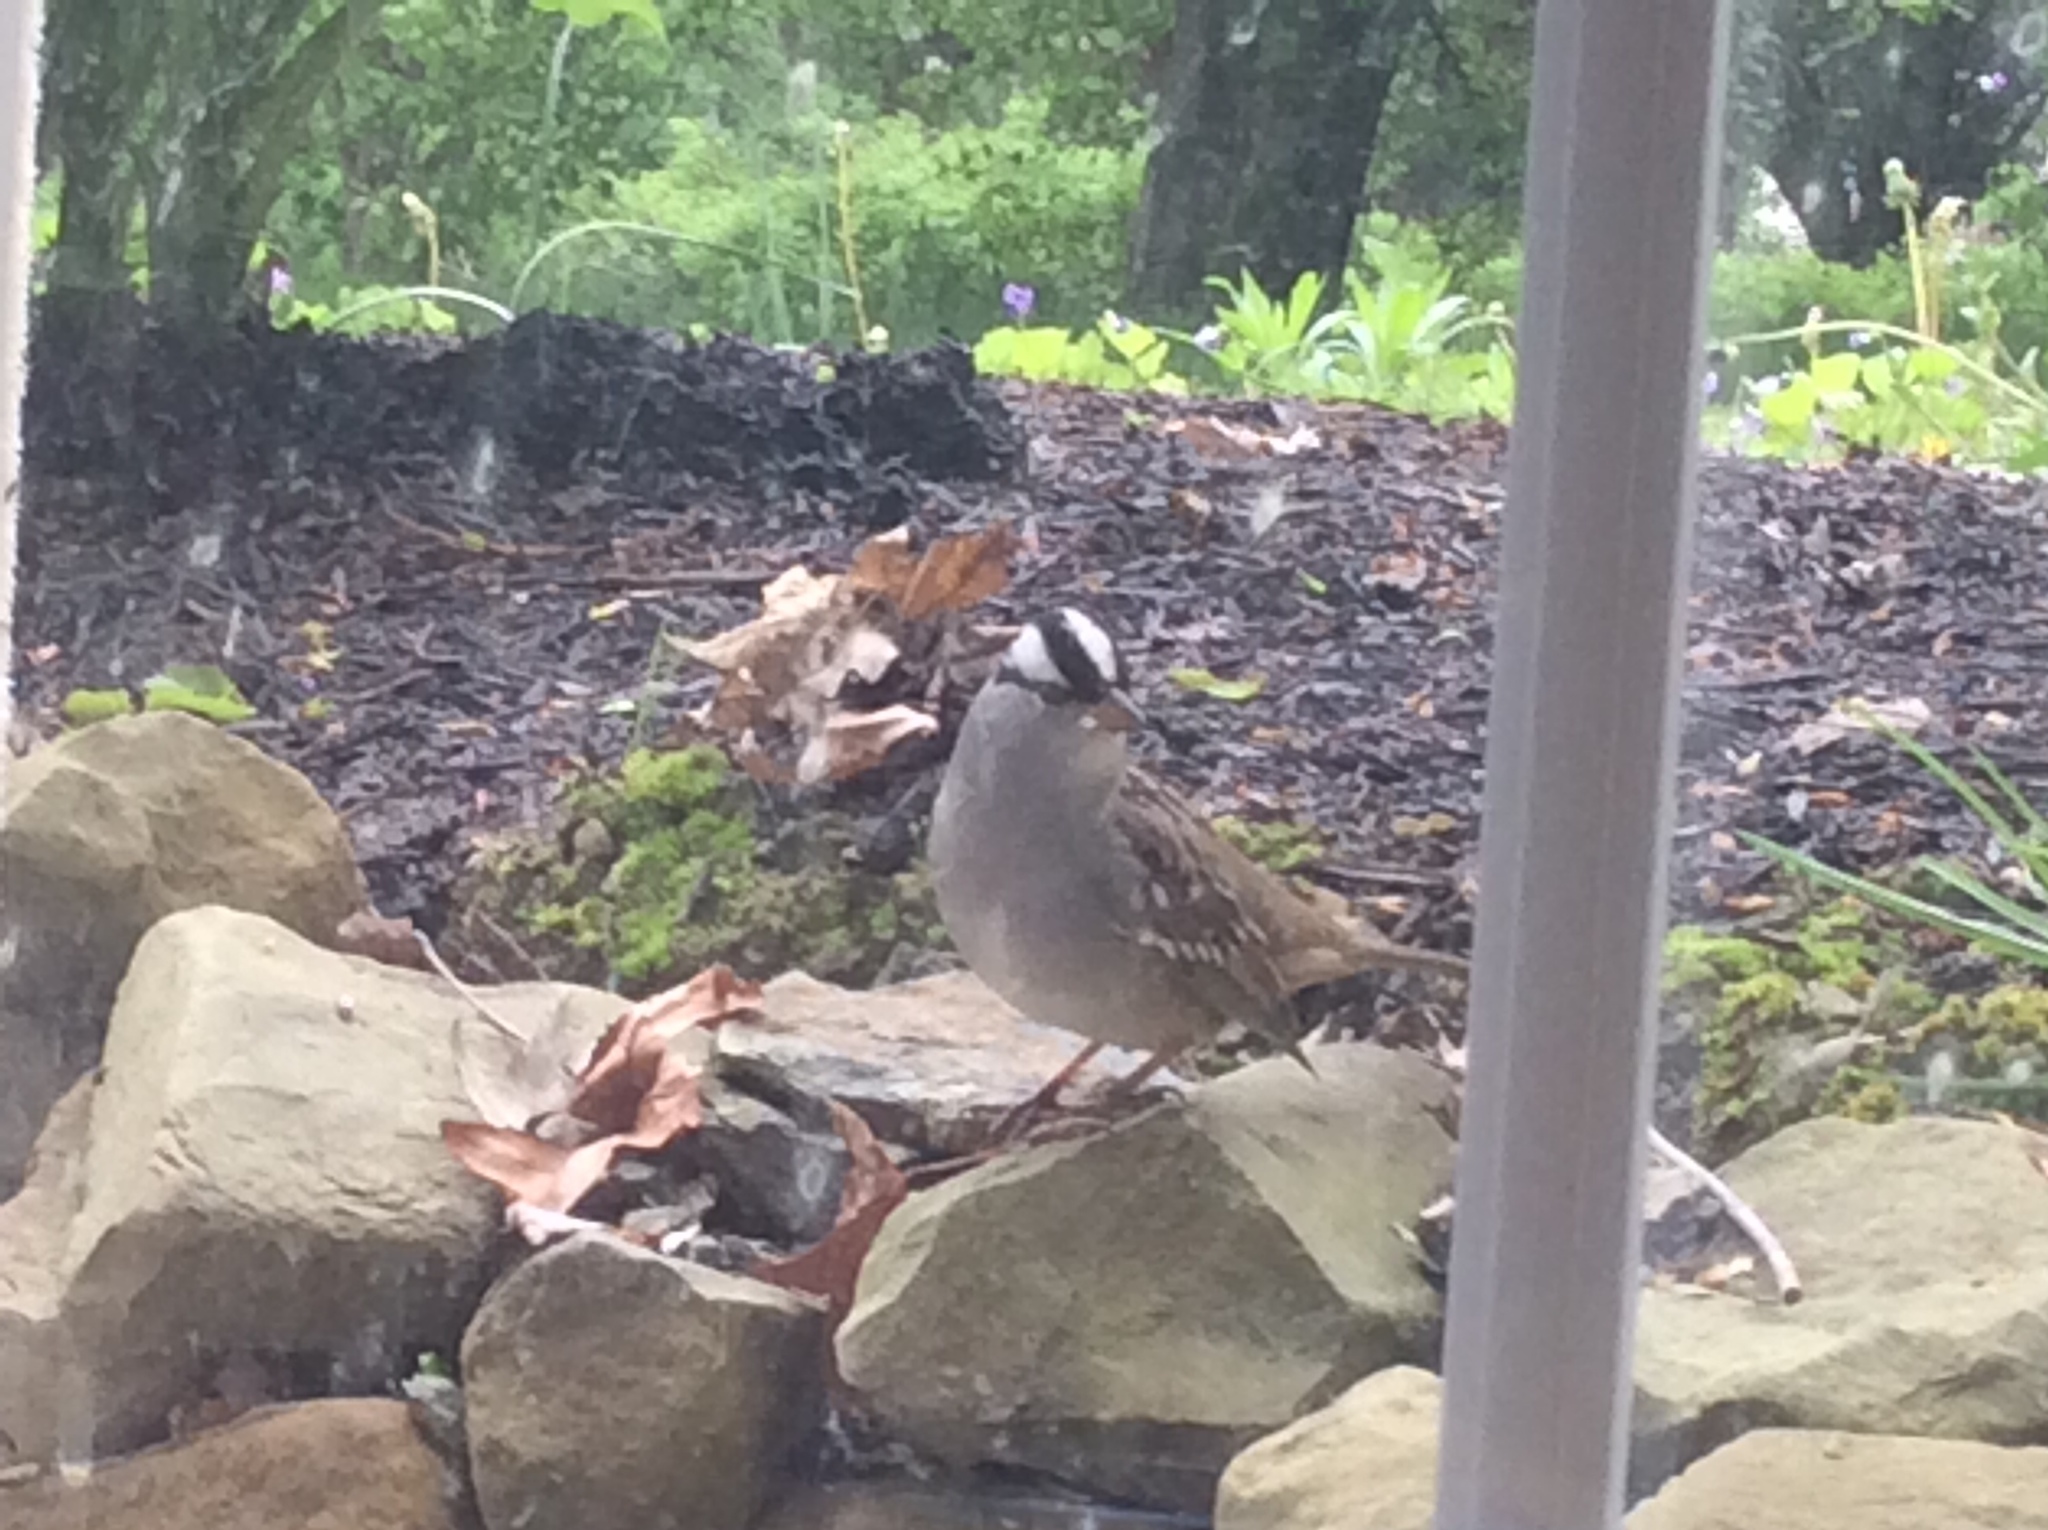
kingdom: Animalia
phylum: Chordata
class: Aves
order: Passeriformes
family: Passerellidae
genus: Zonotrichia
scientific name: Zonotrichia leucophrys
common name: White-crowned sparrow
